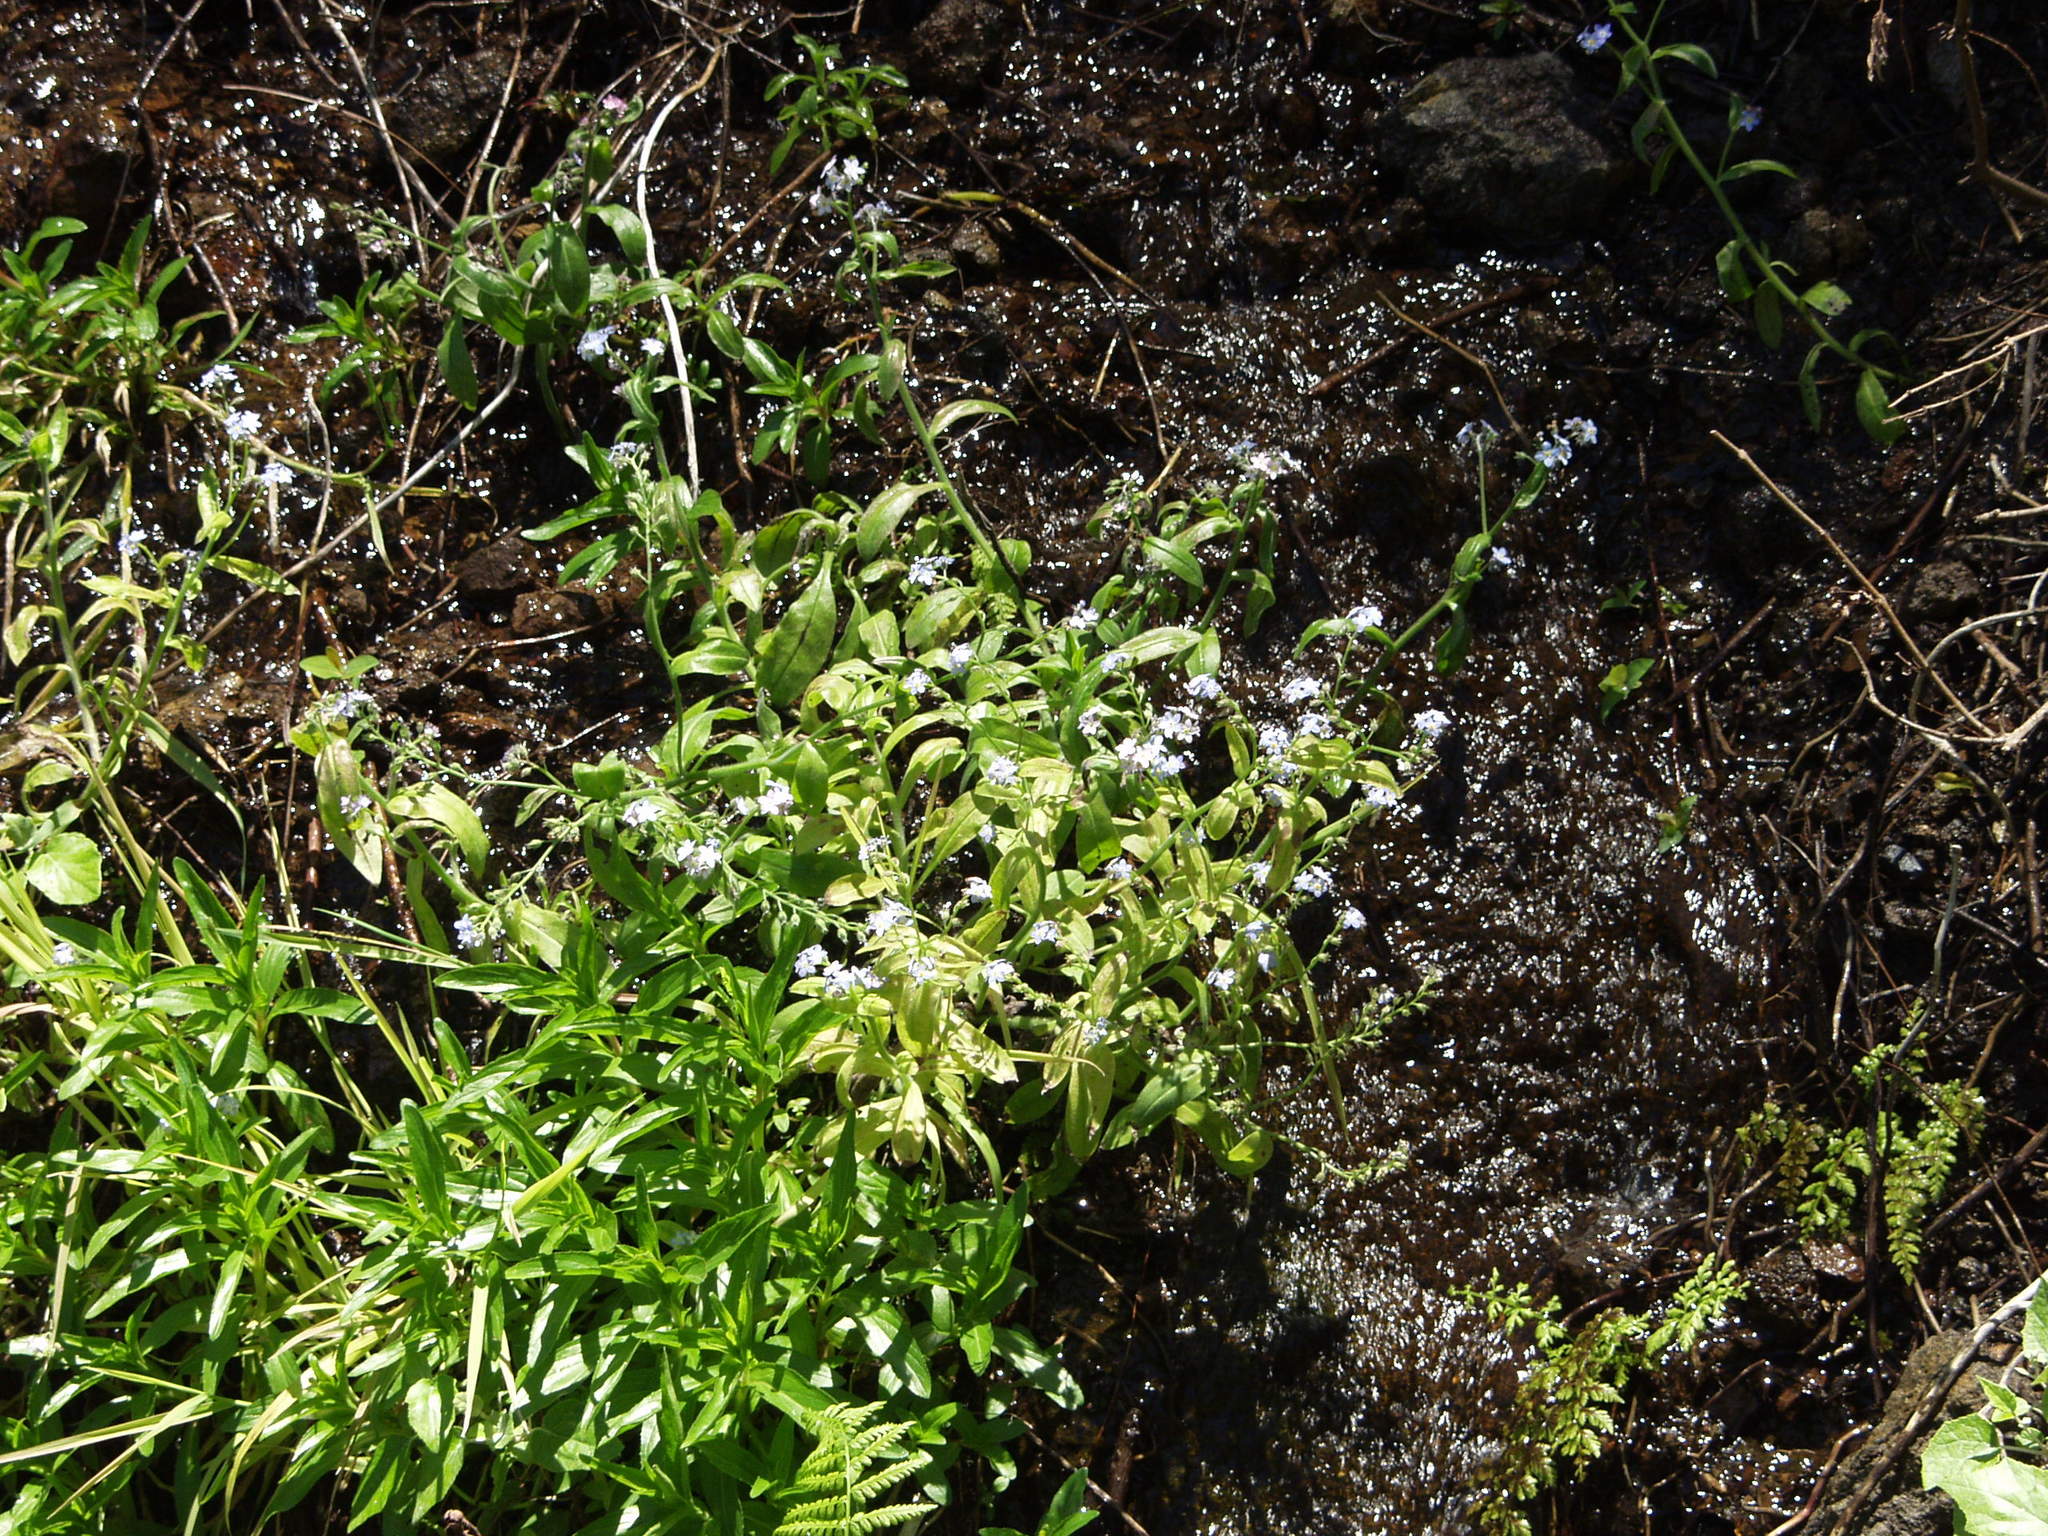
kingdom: Plantae
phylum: Tracheophyta
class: Magnoliopsida
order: Boraginales
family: Boraginaceae
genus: Myosotis
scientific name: Myosotis latifolia
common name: Broadleaf forget-me-not
